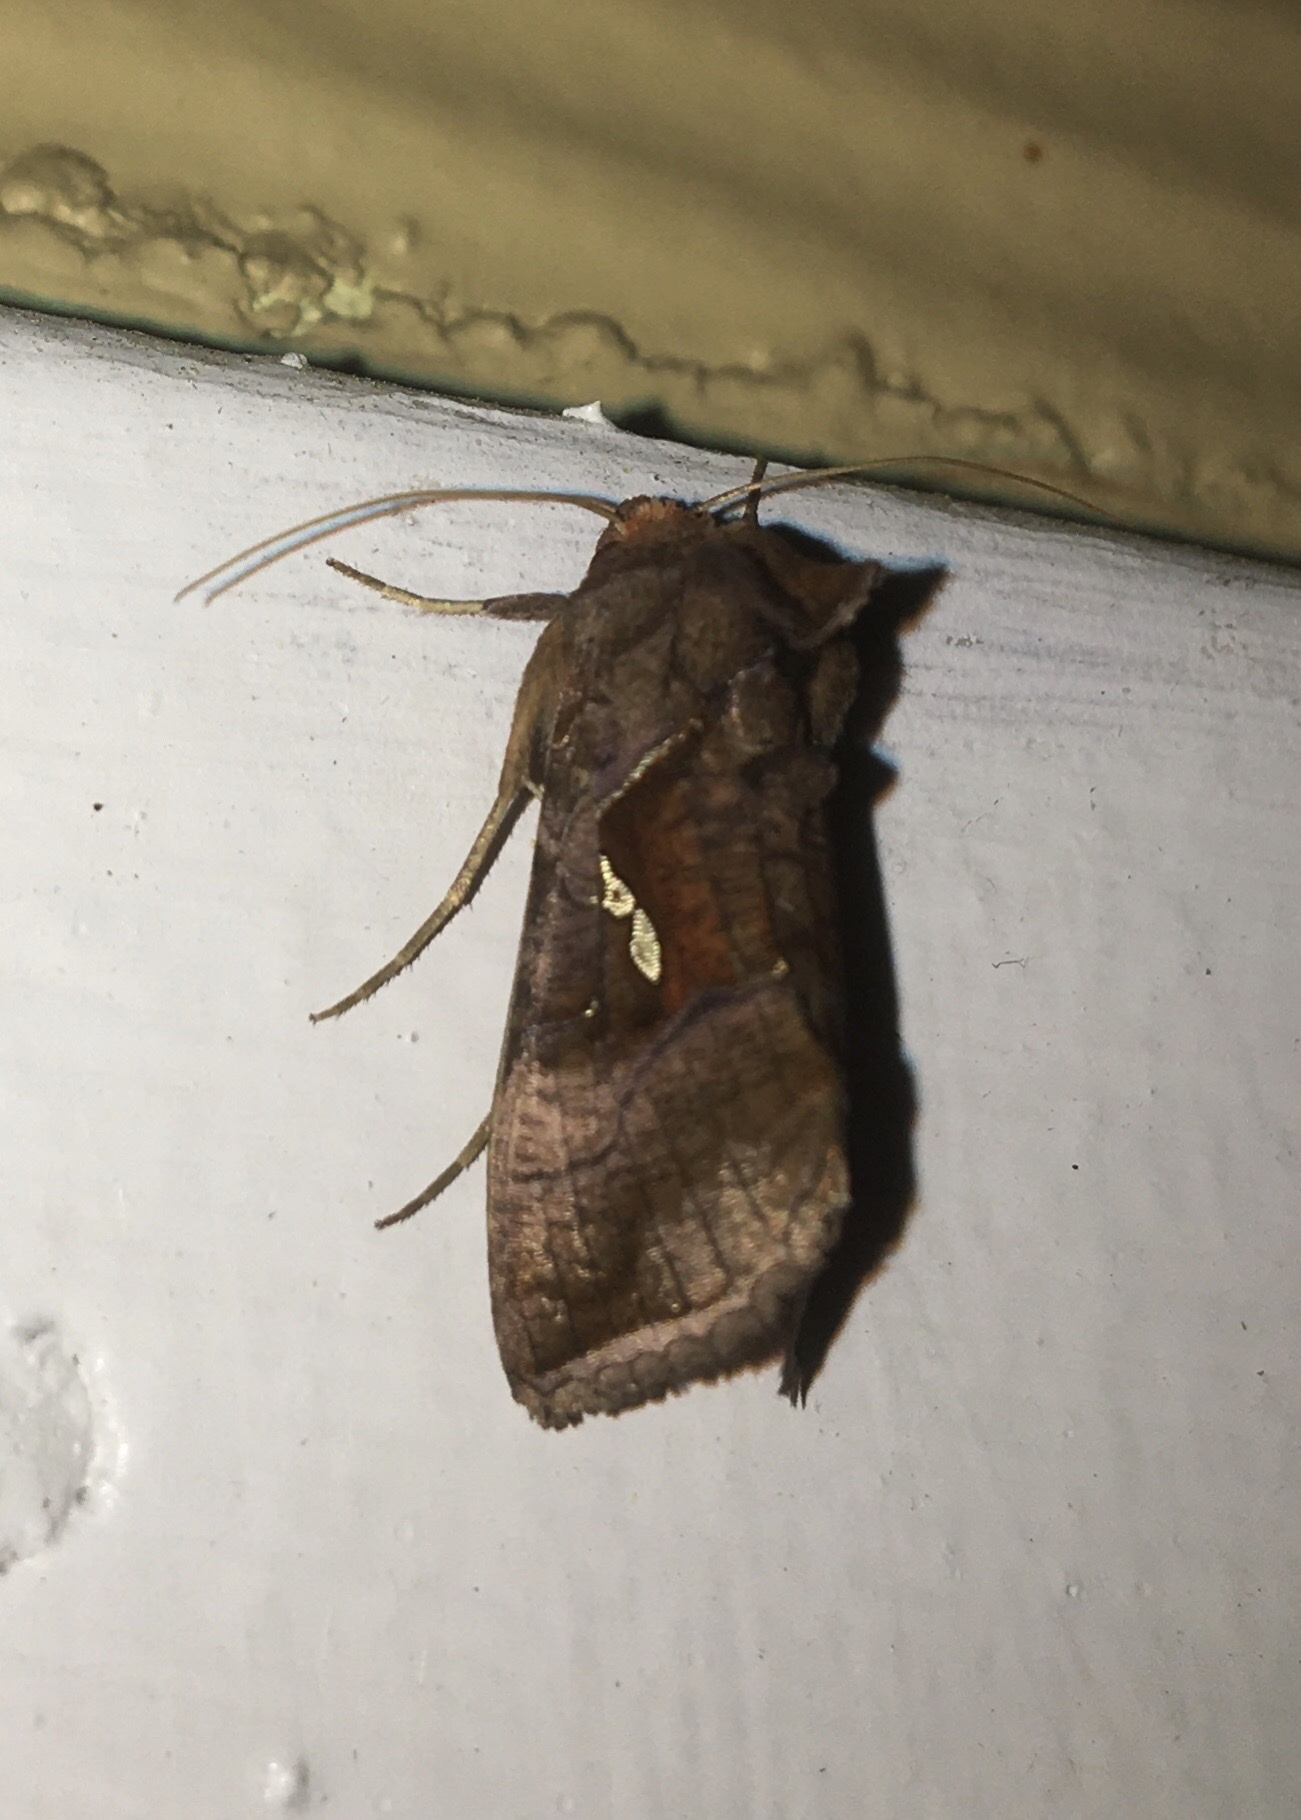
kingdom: Animalia
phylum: Arthropoda
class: Insecta
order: Lepidoptera
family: Noctuidae
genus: Enigmogramma
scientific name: Enigmogramma basigera
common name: Pink-washed looper moth
